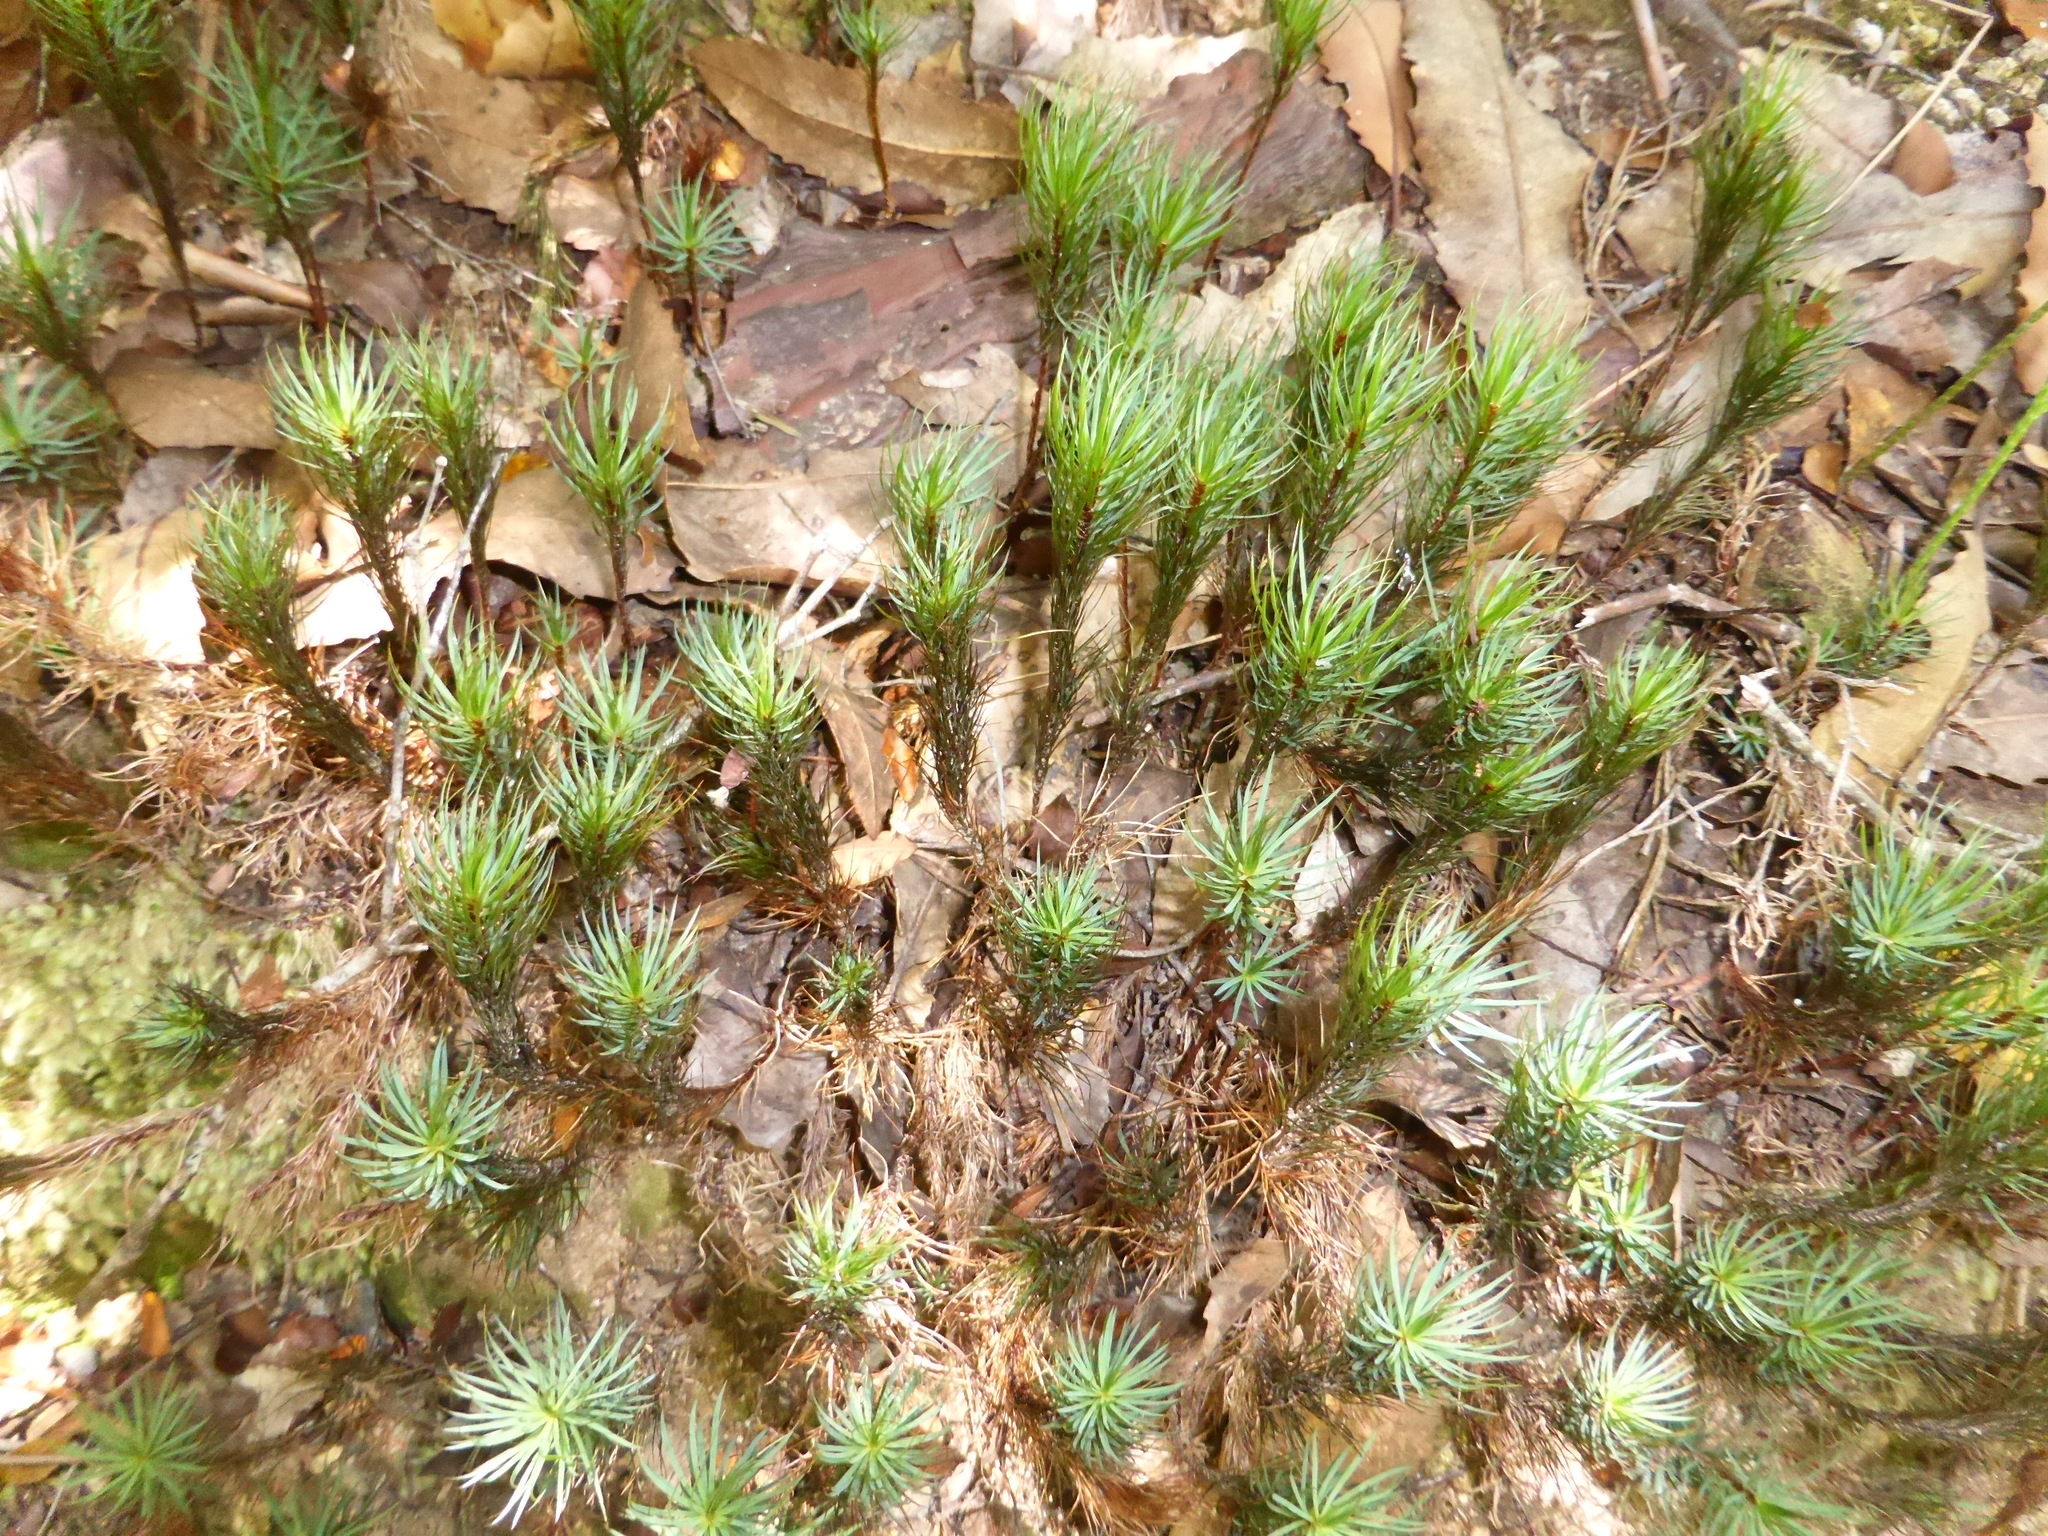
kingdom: Plantae
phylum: Bryophyta
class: Polytrichopsida
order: Polytrichales
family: Polytrichaceae
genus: Dawsonia
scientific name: Dawsonia superba
